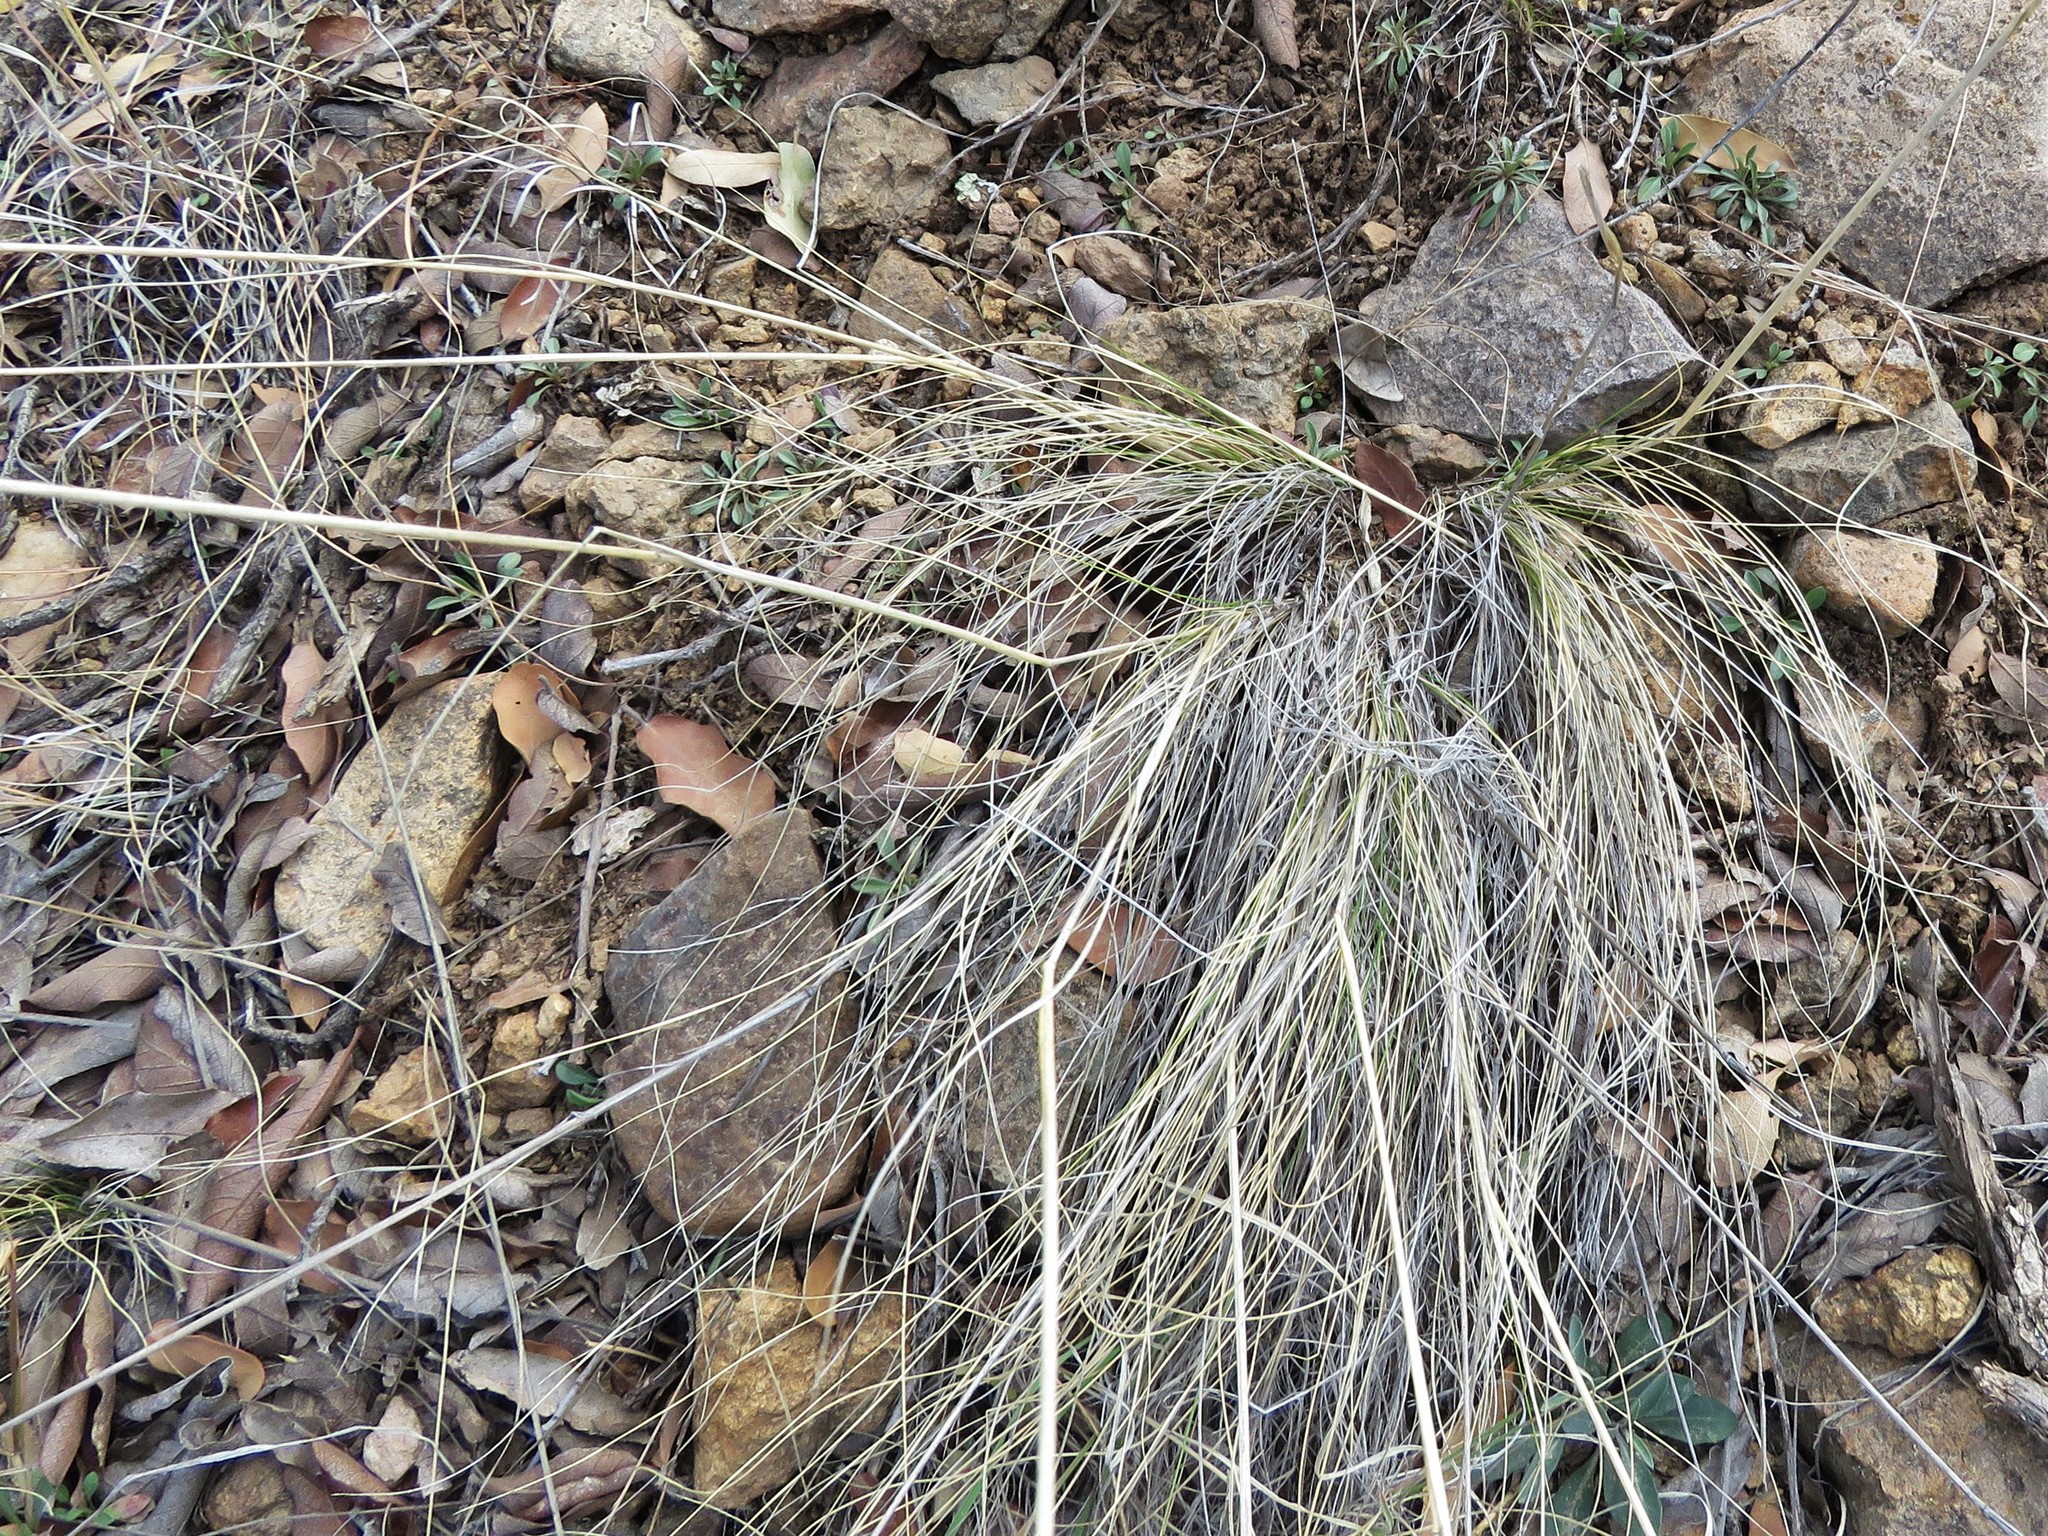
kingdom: Plantae
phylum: Tracheophyta
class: Liliopsida
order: Poales
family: Poaceae
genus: Piptochaetium
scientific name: Piptochaetium fimbriatum
